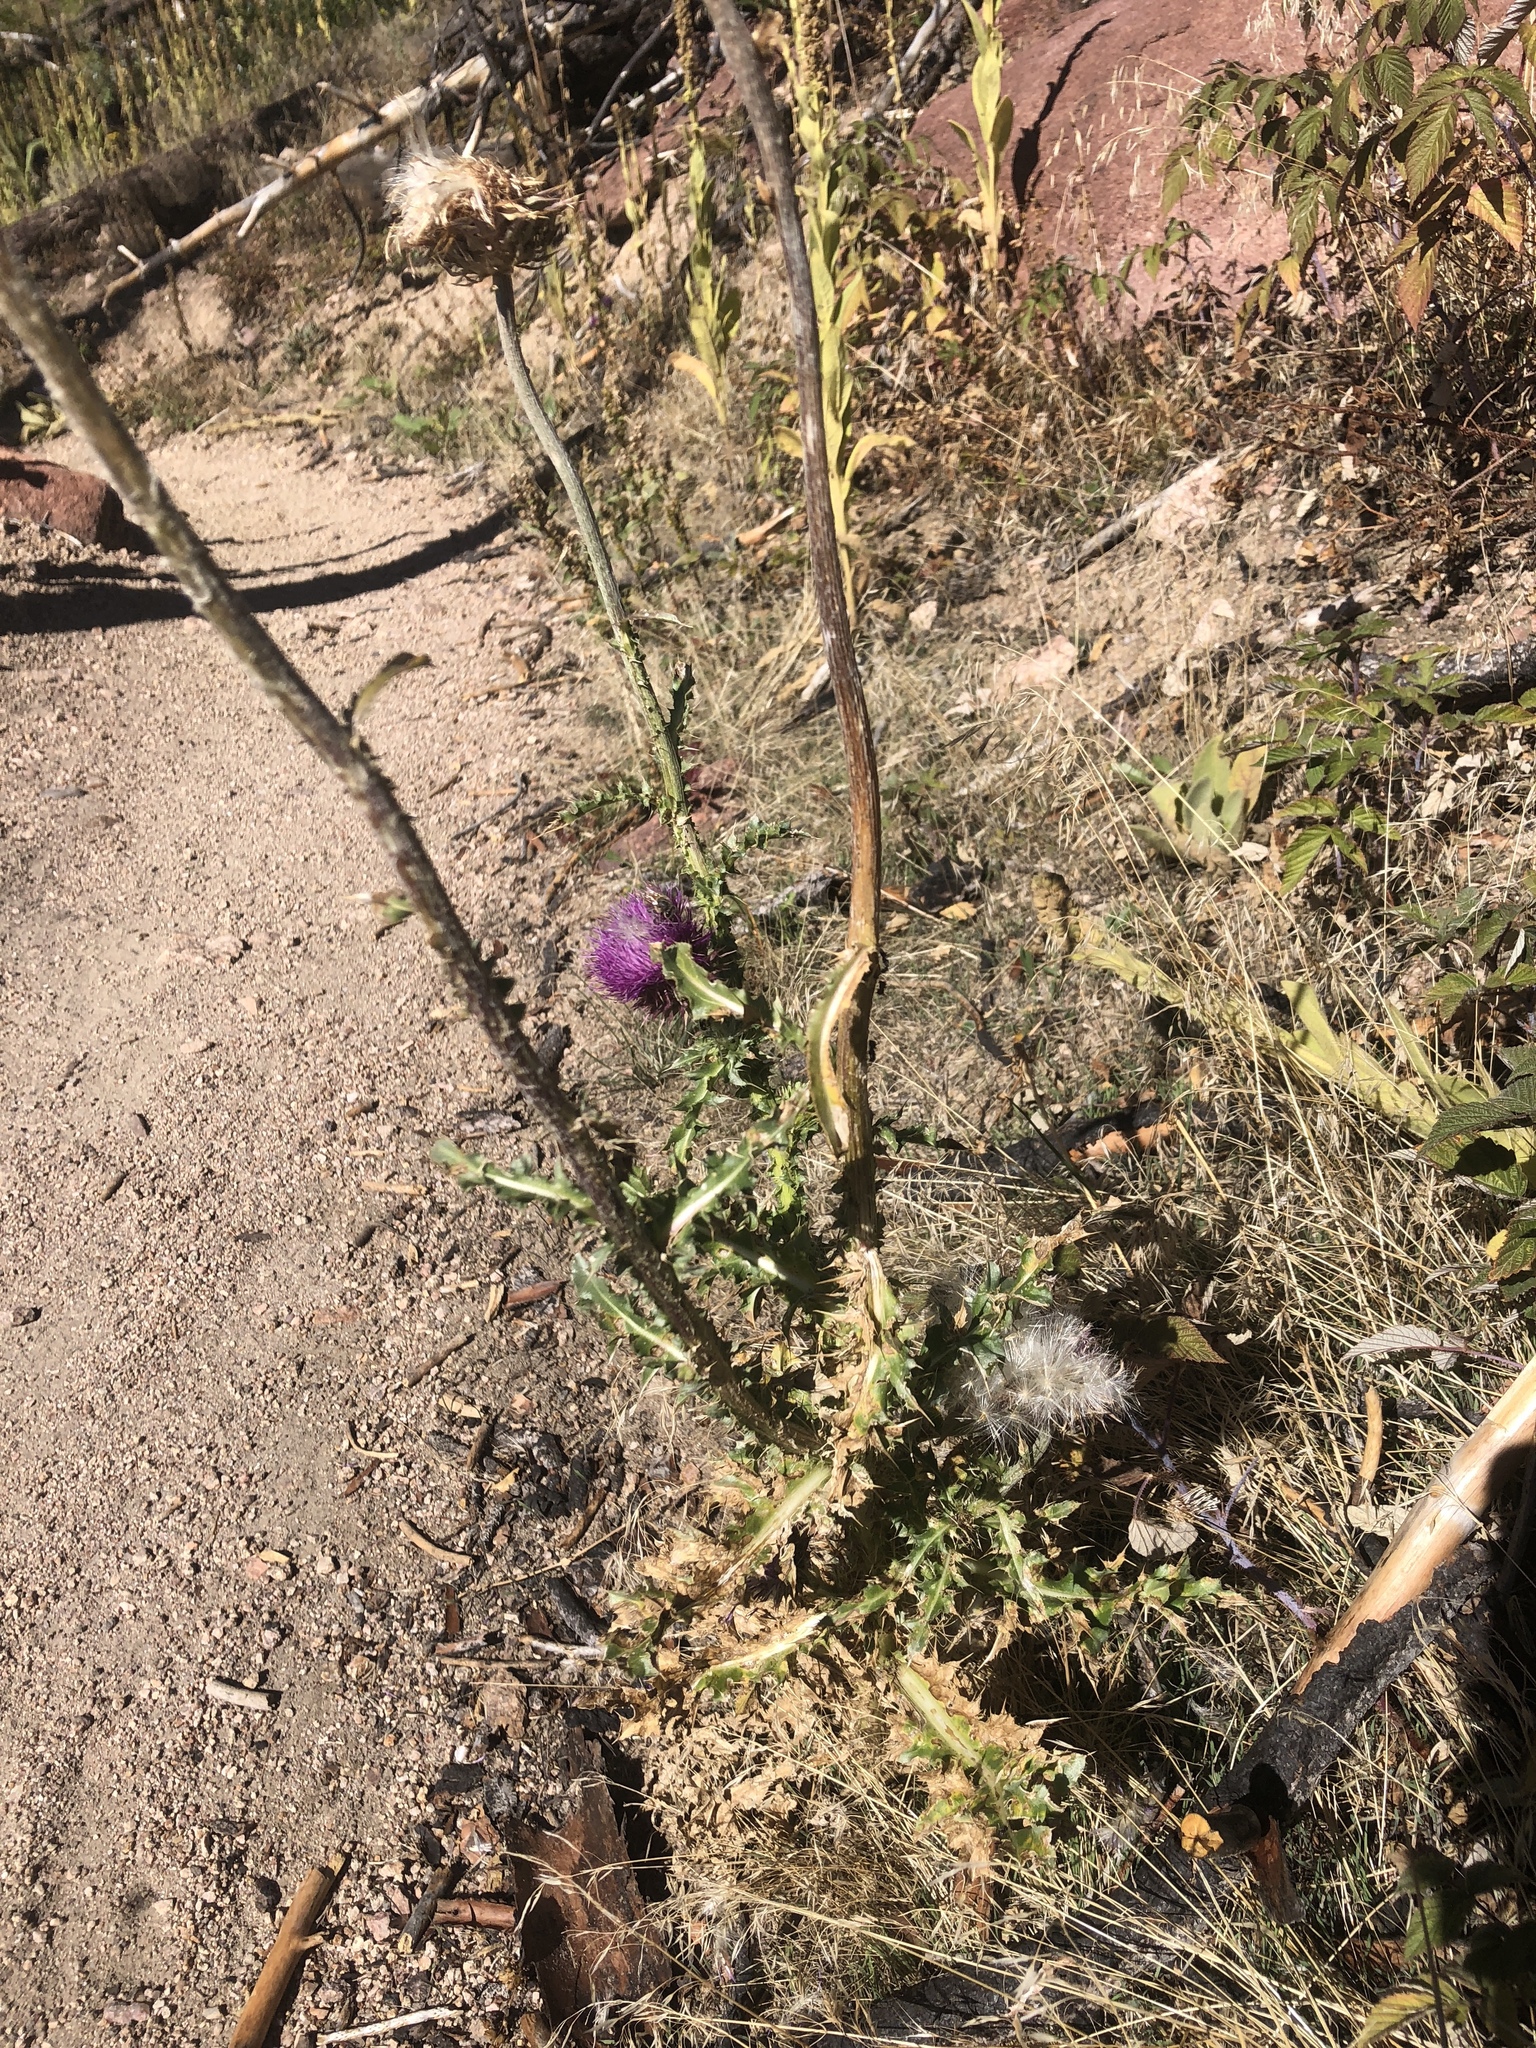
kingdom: Plantae
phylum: Tracheophyta
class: Magnoliopsida
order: Asterales
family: Asteraceae
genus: Carduus
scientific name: Carduus nutans
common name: Musk thistle
